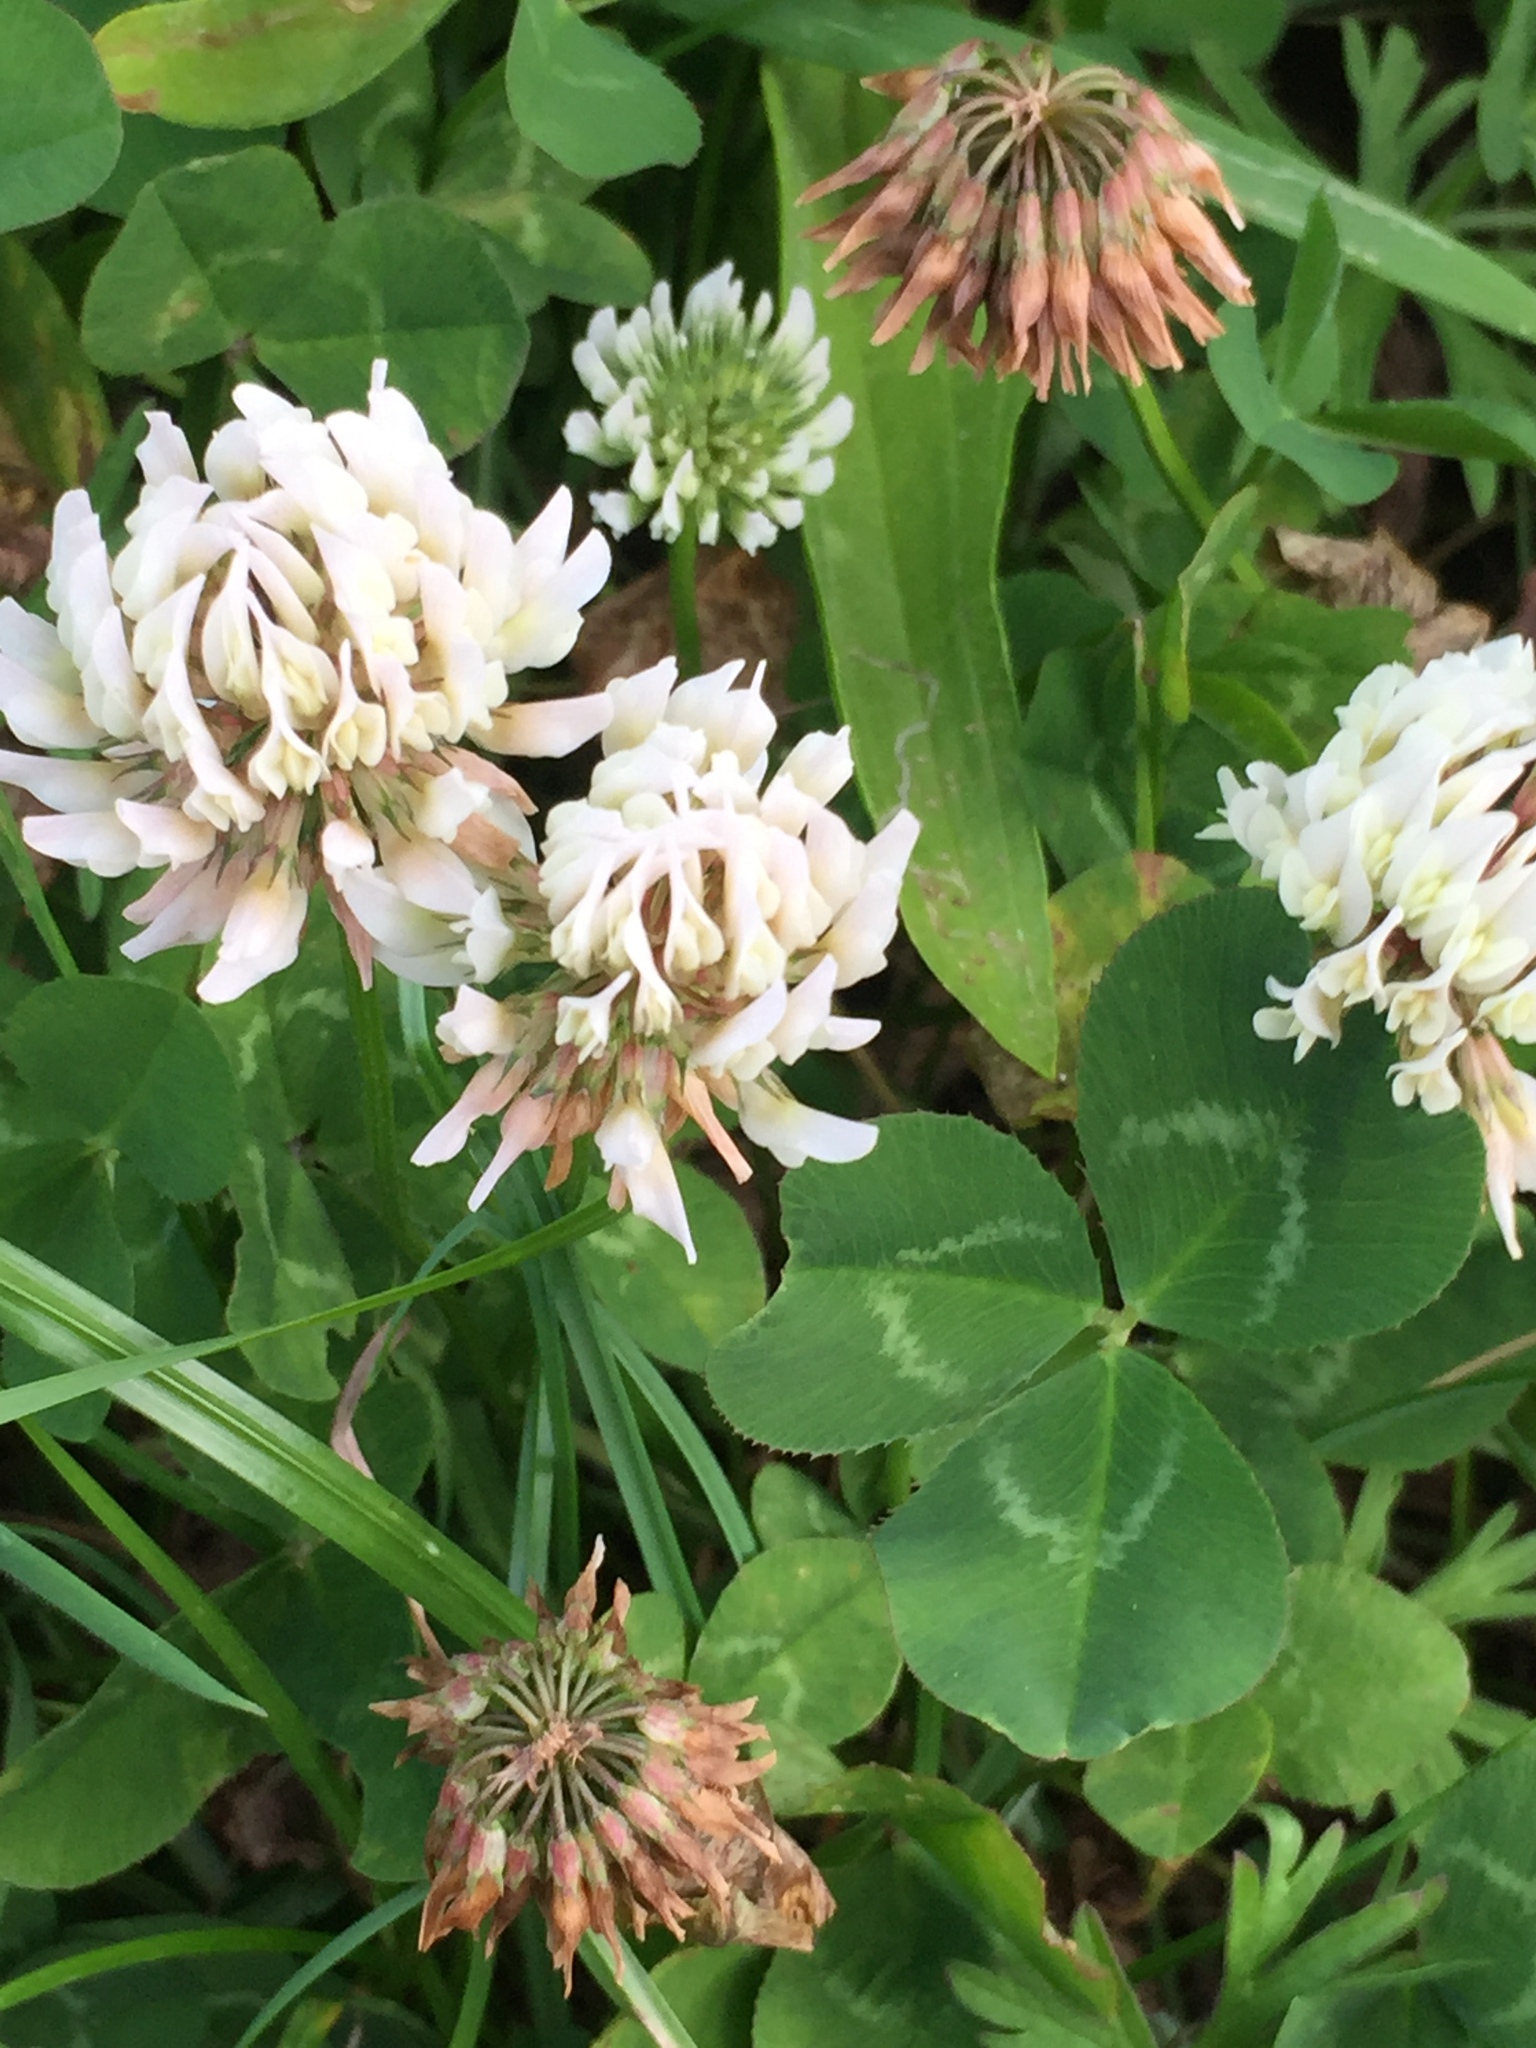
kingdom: Plantae
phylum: Tracheophyta
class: Magnoliopsida
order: Fabales
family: Fabaceae
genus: Trifolium
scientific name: Trifolium repens
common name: White clover
